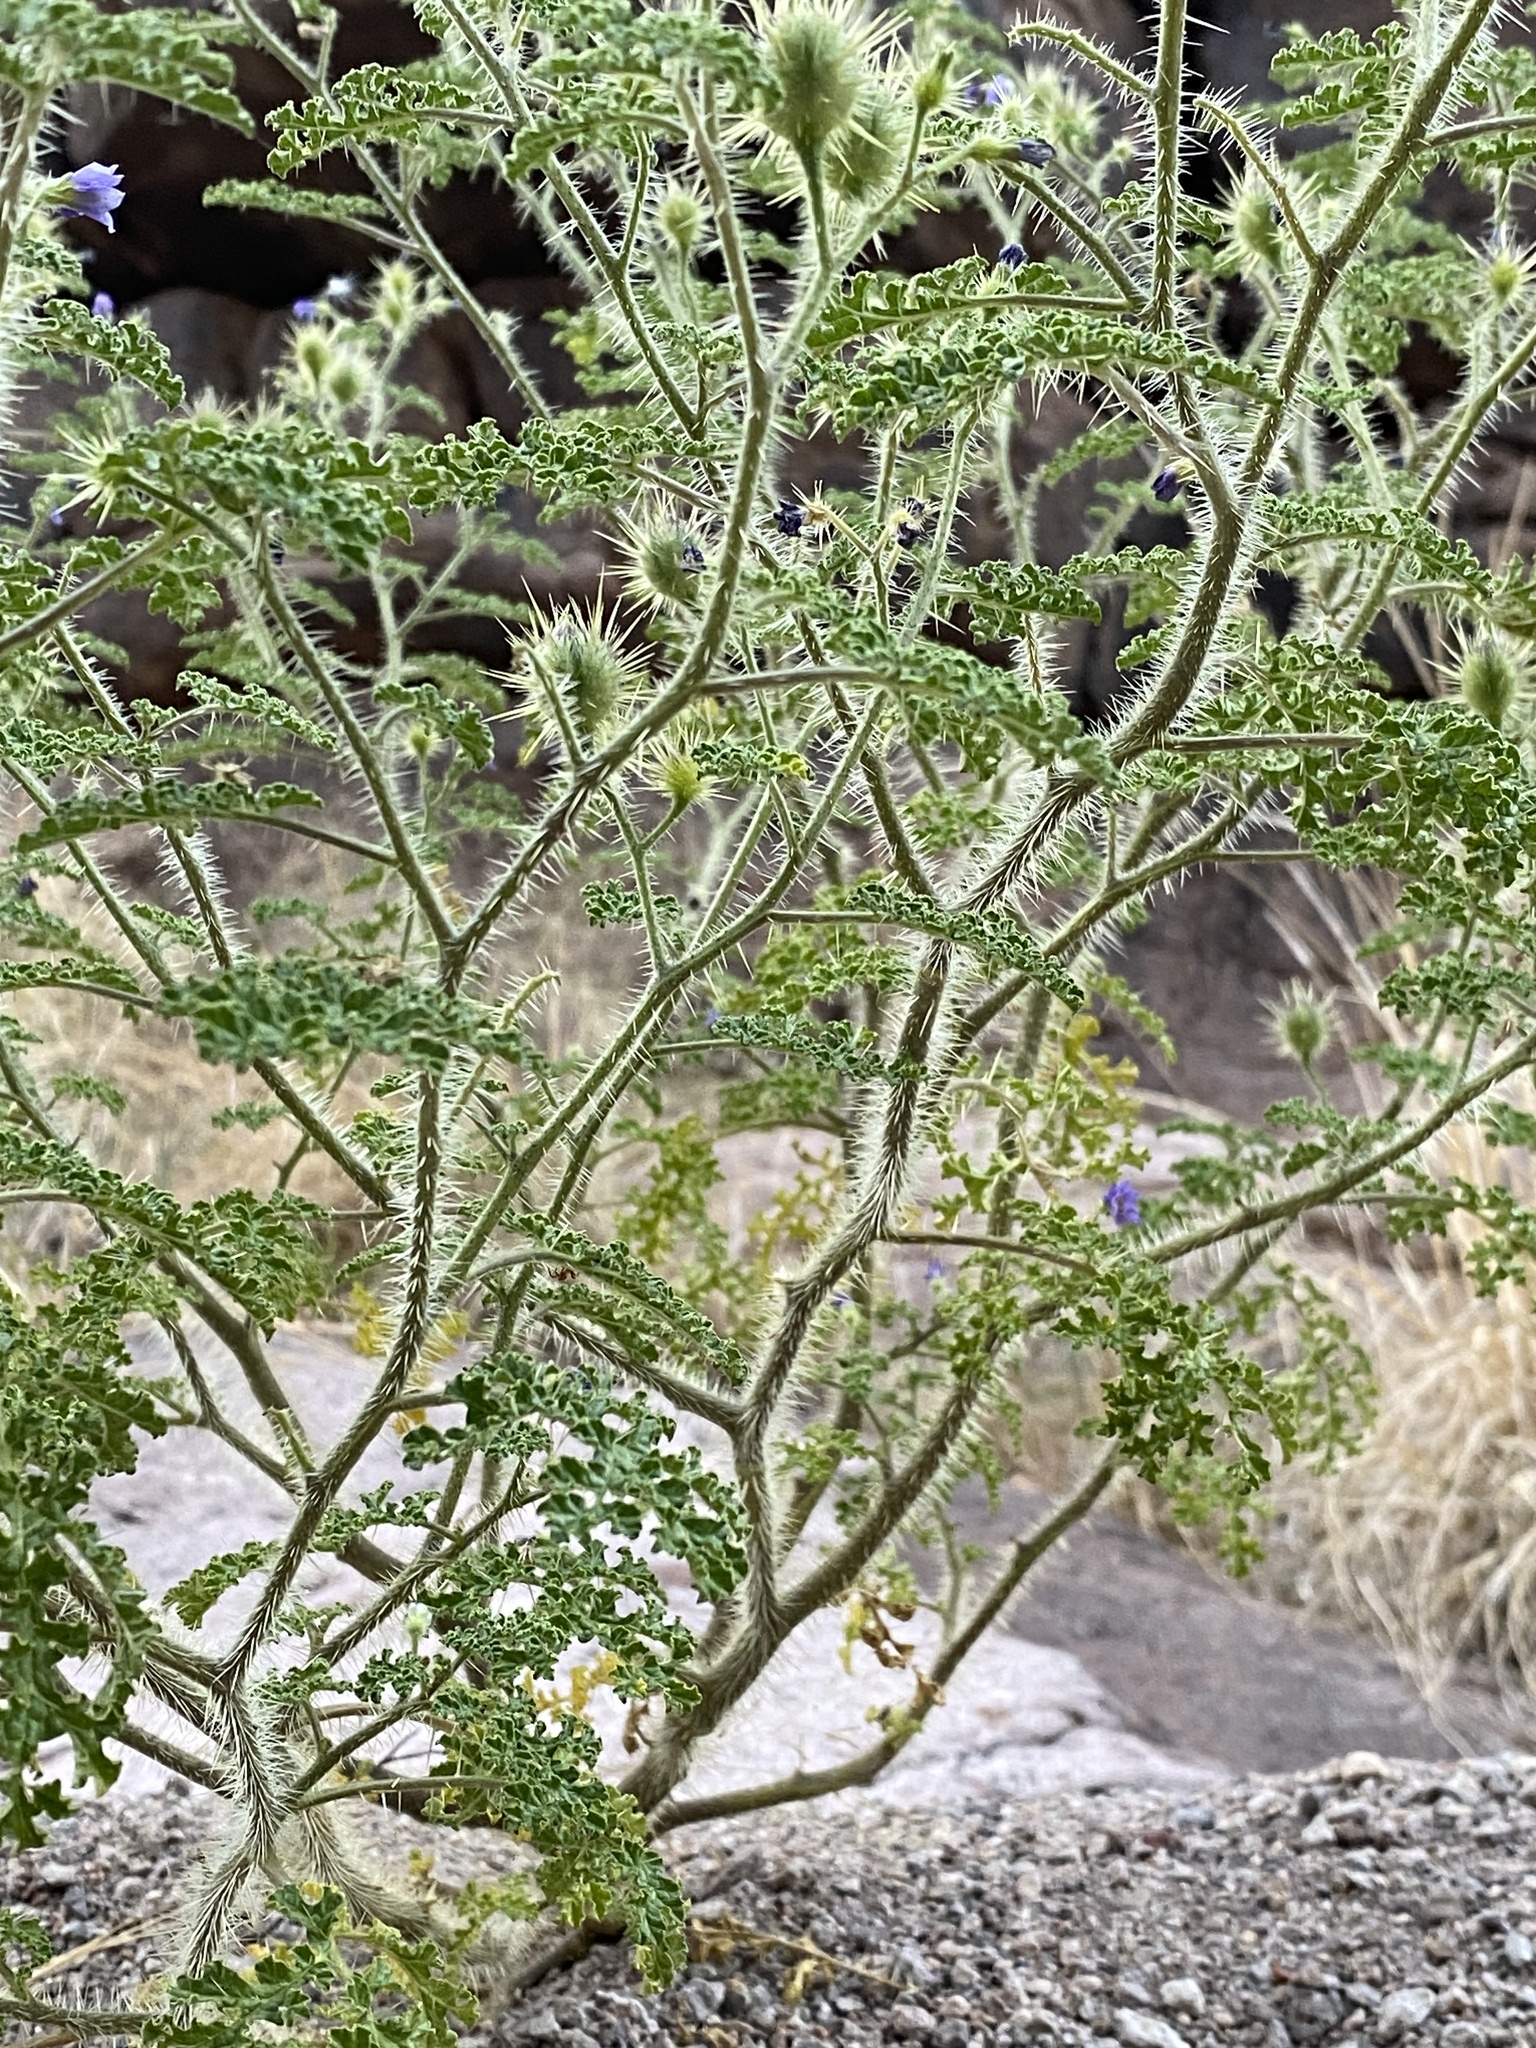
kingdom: Plantae
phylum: Tracheophyta
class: Magnoliopsida
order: Solanales
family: Solanaceae
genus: Solanum
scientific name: Solanum heterodoxum
